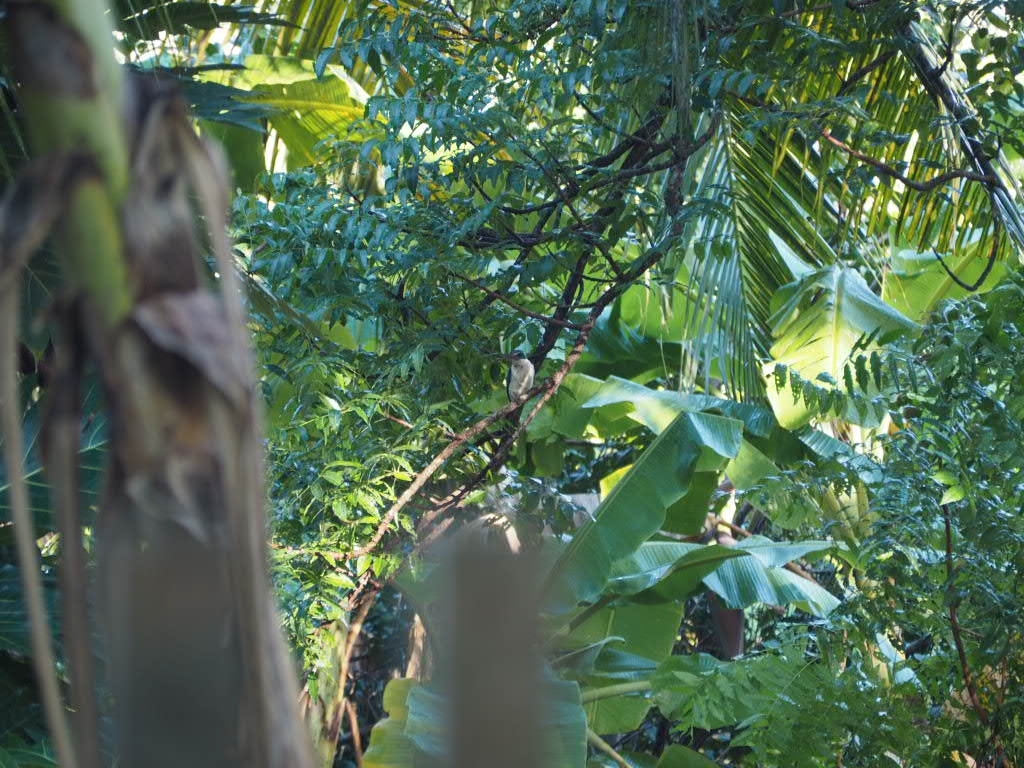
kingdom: Animalia
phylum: Chordata
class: Aves
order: Coraciiformes
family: Alcedinidae
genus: Todiramphus
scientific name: Todiramphus chloris
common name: Collared kingfisher
